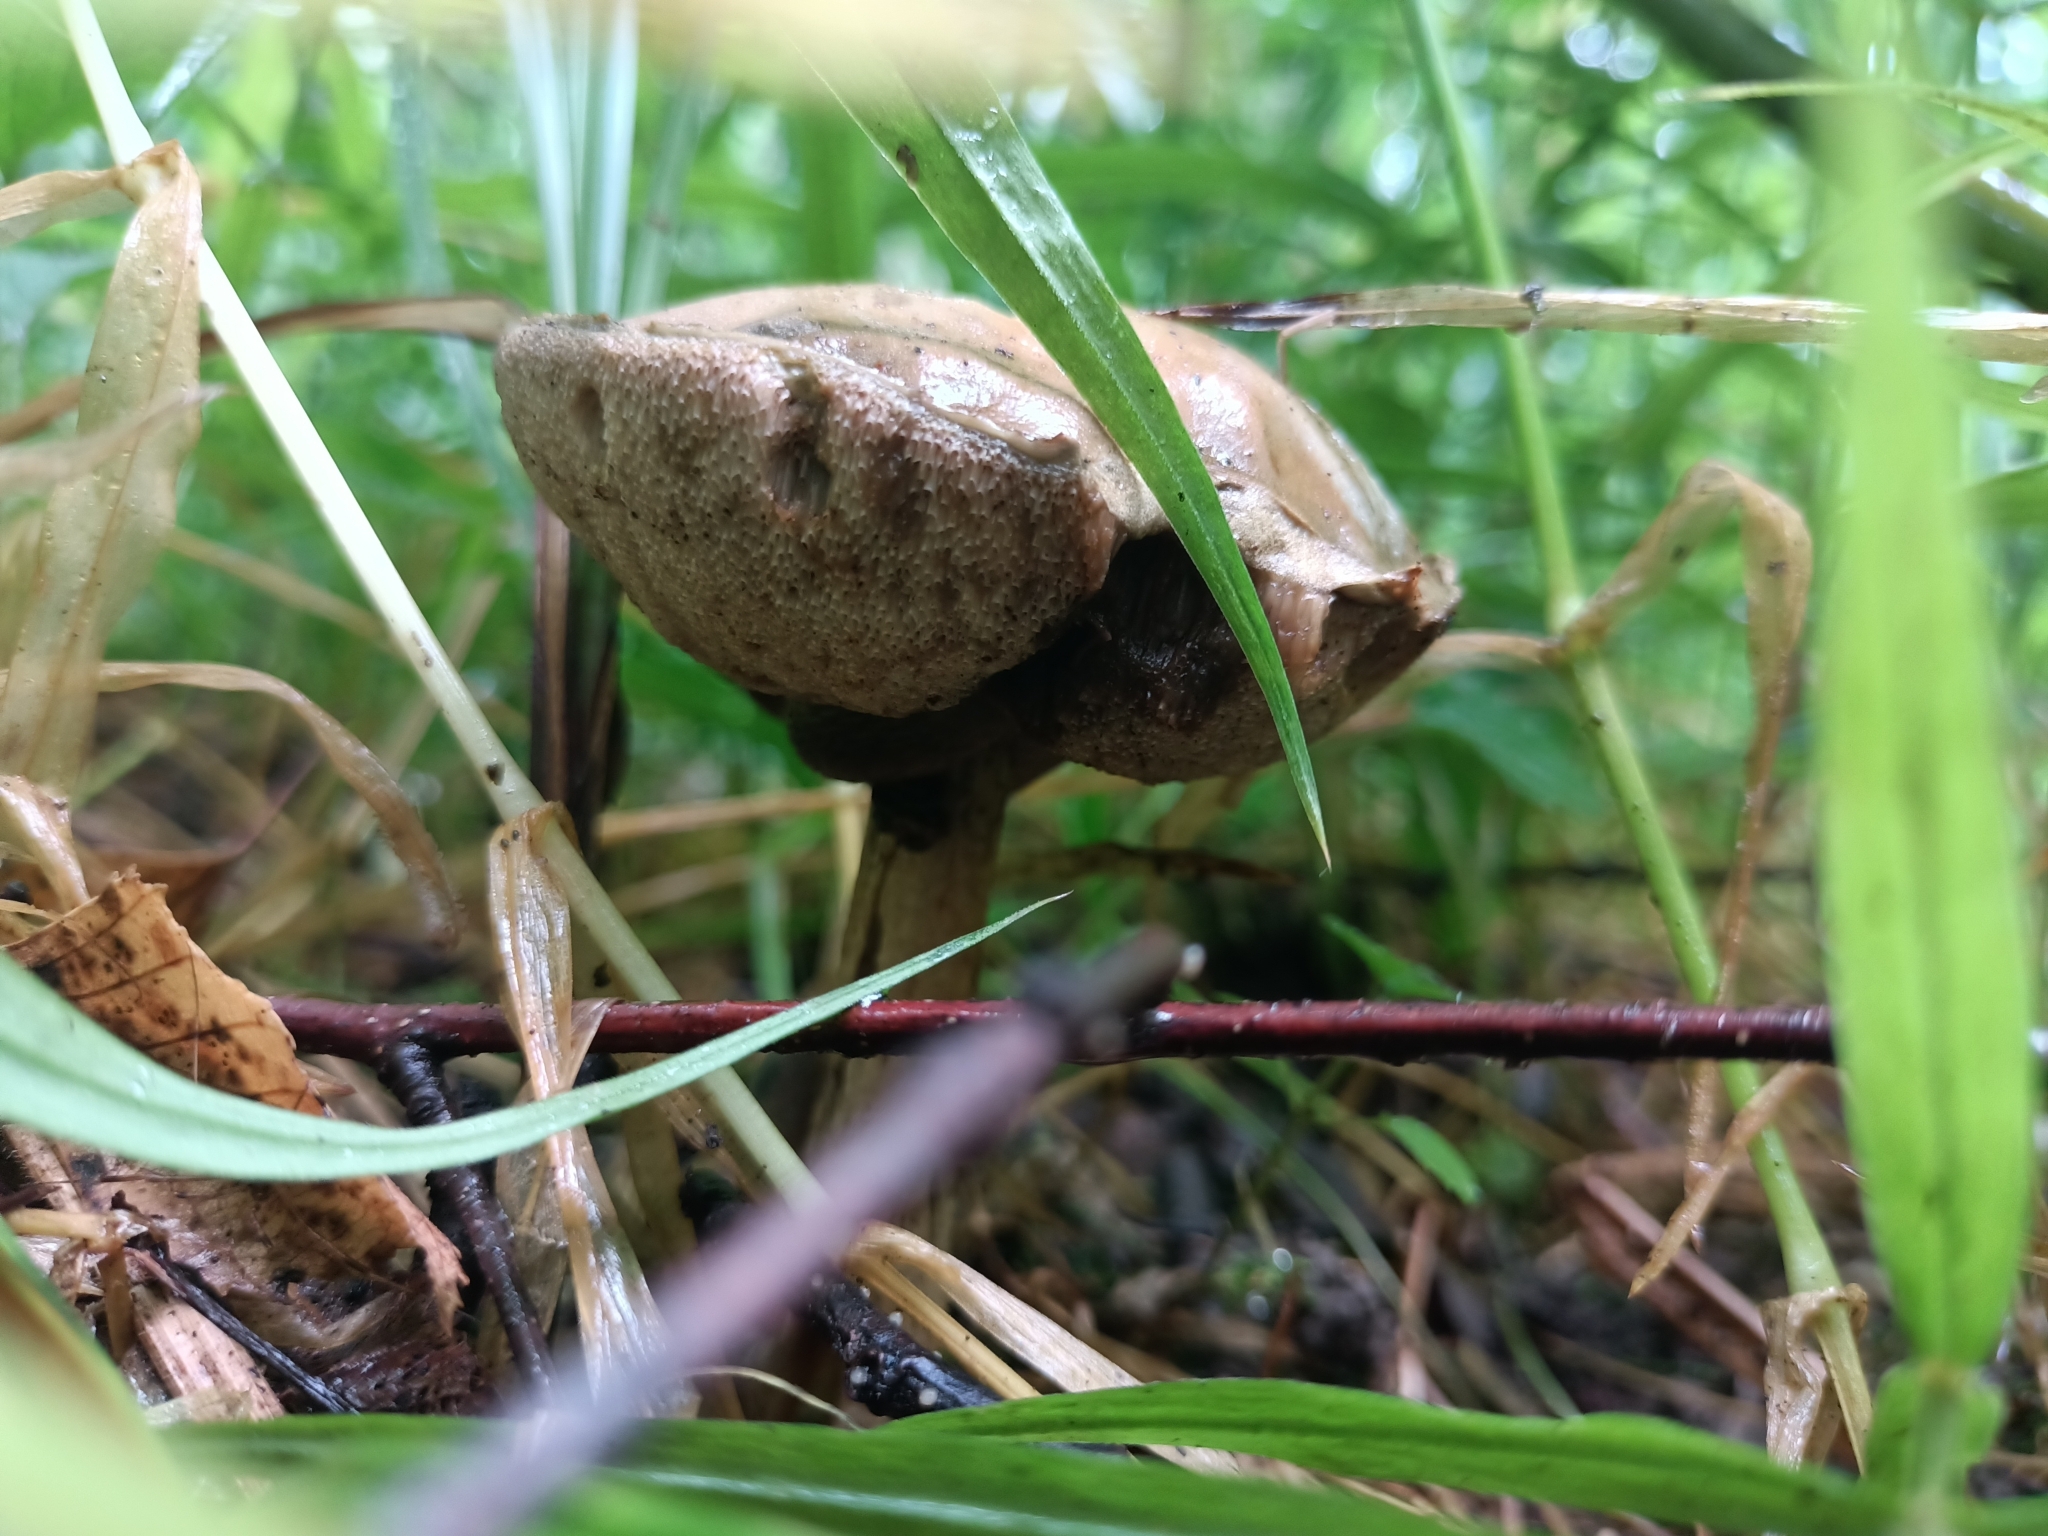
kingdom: Fungi
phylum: Basidiomycota
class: Agaricomycetes
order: Boletales
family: Boletaceae
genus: Leccinum
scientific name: Leccinum scabrum
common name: Blushing bolete
